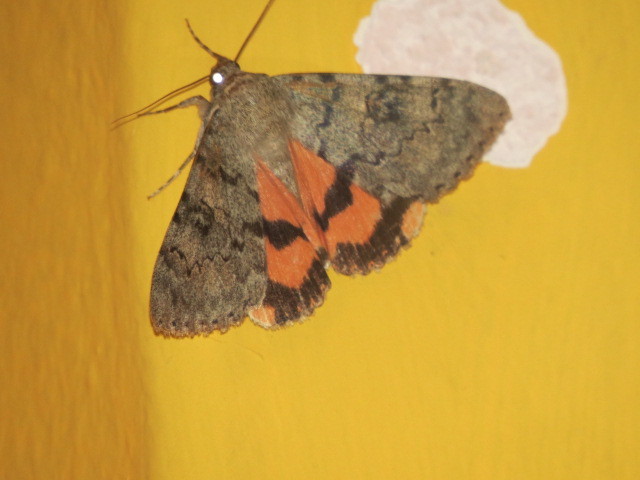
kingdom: Animalia
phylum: Arthropoda
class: Insecta
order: Lepidoptera
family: Erebidae
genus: Catocala
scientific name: Catocala puerpera
